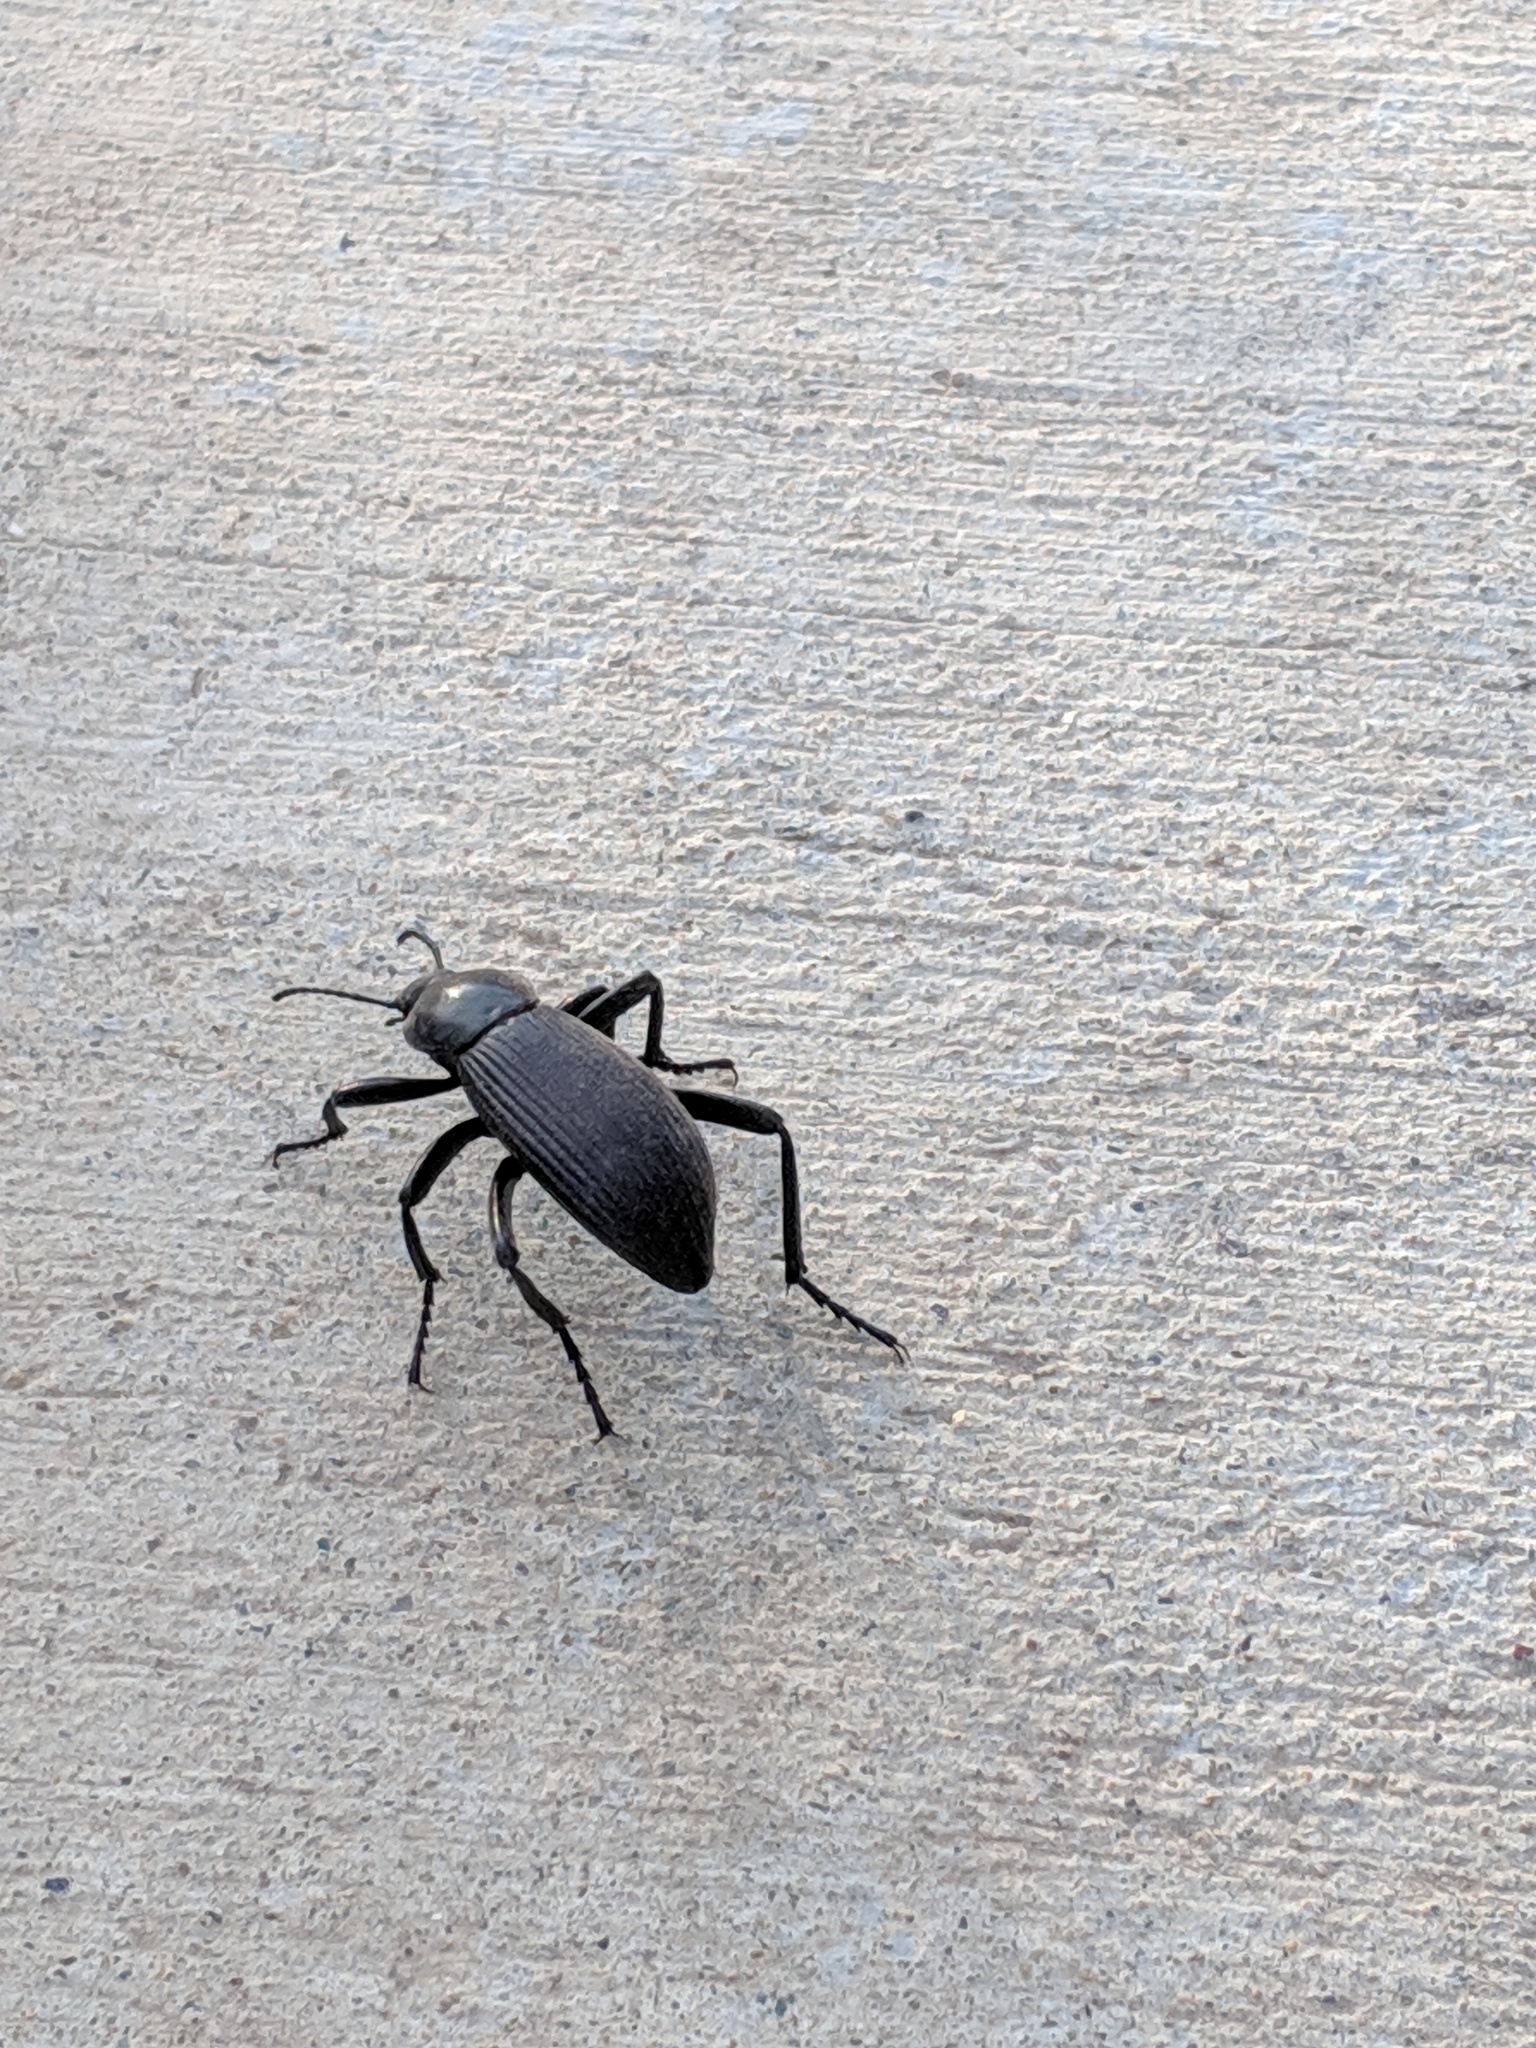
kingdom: Animalia
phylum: Arthropoda
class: Insecta
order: Coleoptera
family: Tenebrionidae
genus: Eleodes
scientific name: Eleodes obscura
